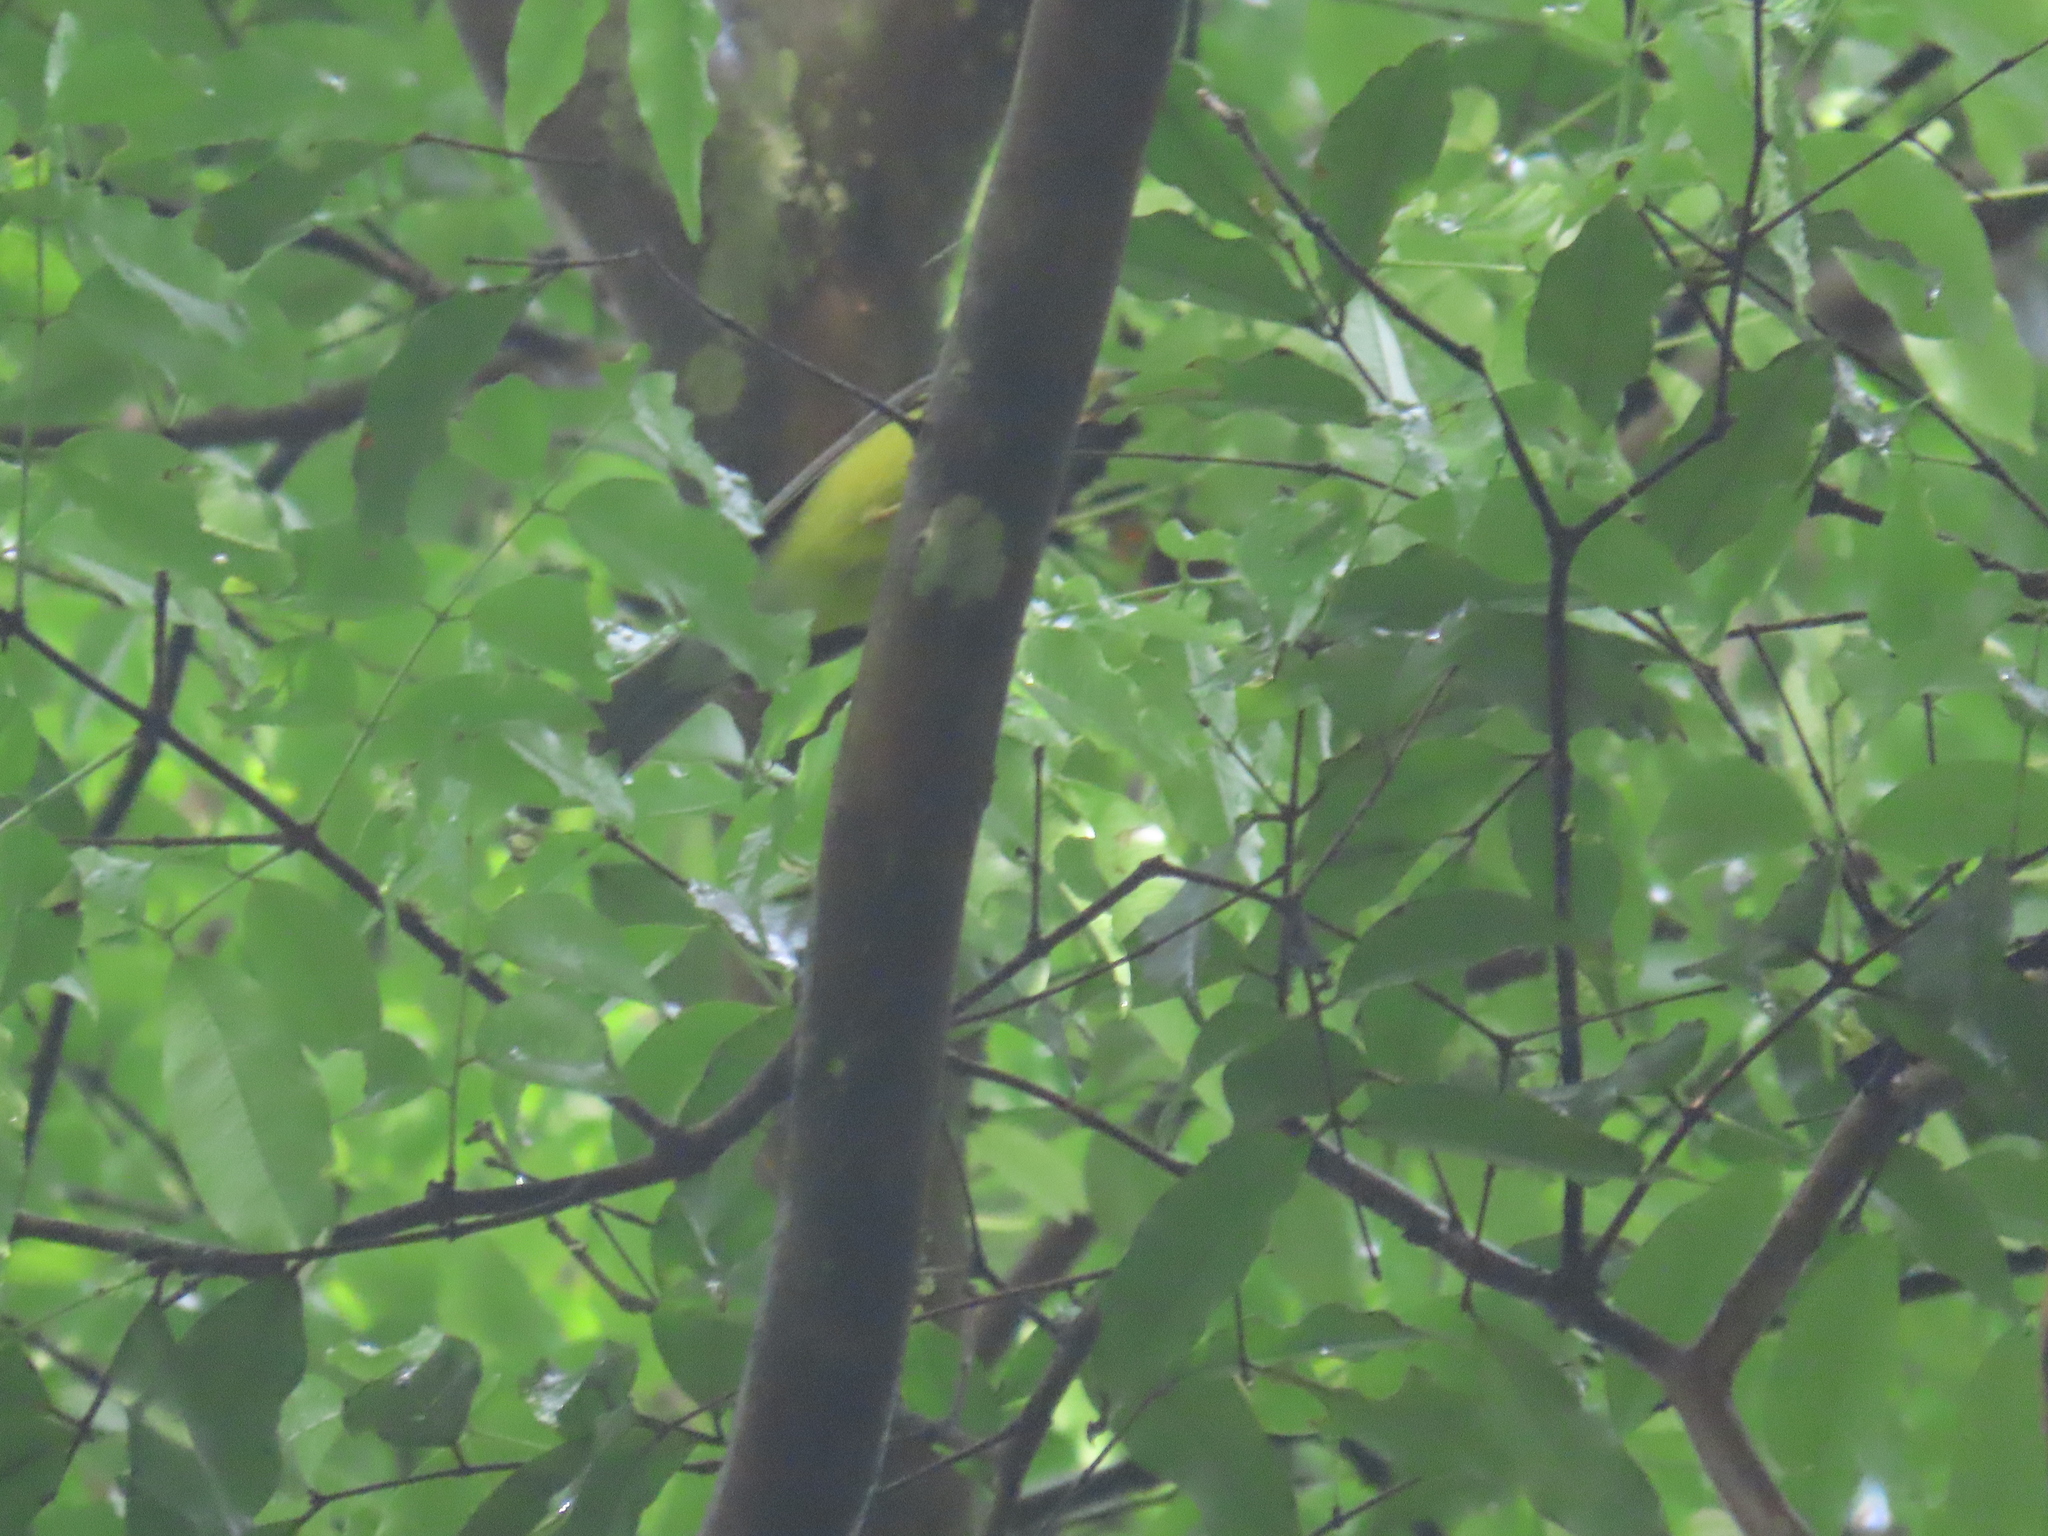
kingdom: Animalia
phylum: Chordata
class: Aves
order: Passeriformes
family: Parulidae
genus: Cardellina
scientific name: Cardellina canadensis
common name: Canada warbler
